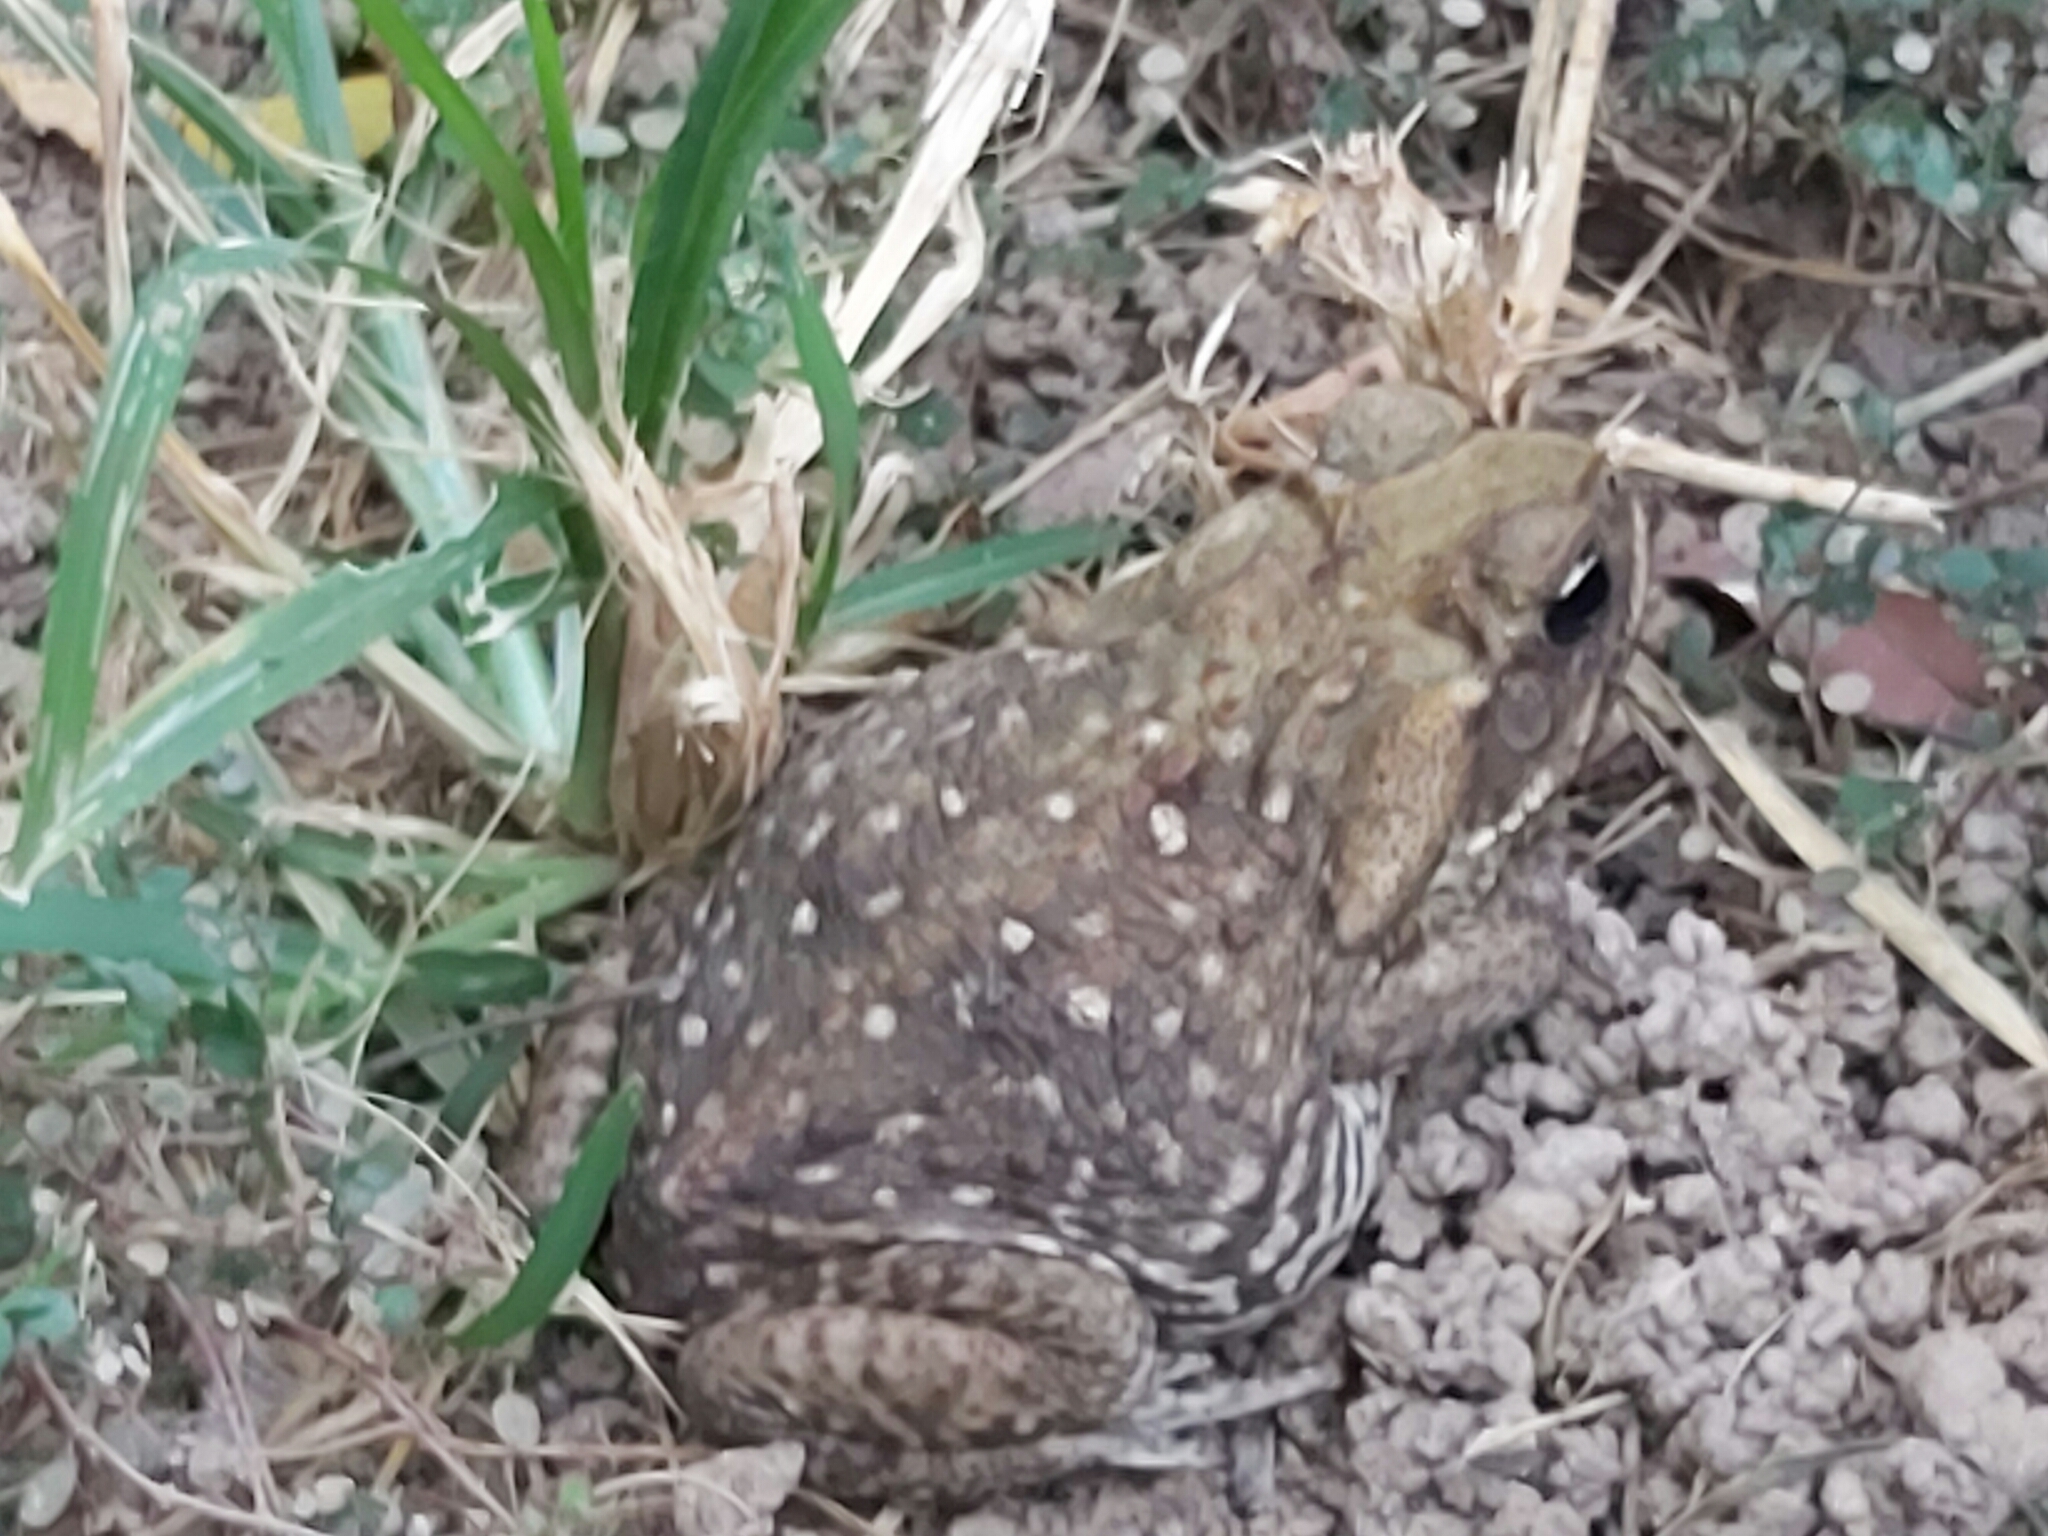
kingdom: Animalia
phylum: Chordata
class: Amphibia
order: Anura
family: Bufonidae
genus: Rhinella
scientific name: Rhinella horribilis
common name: Mesoamerican cane toad
